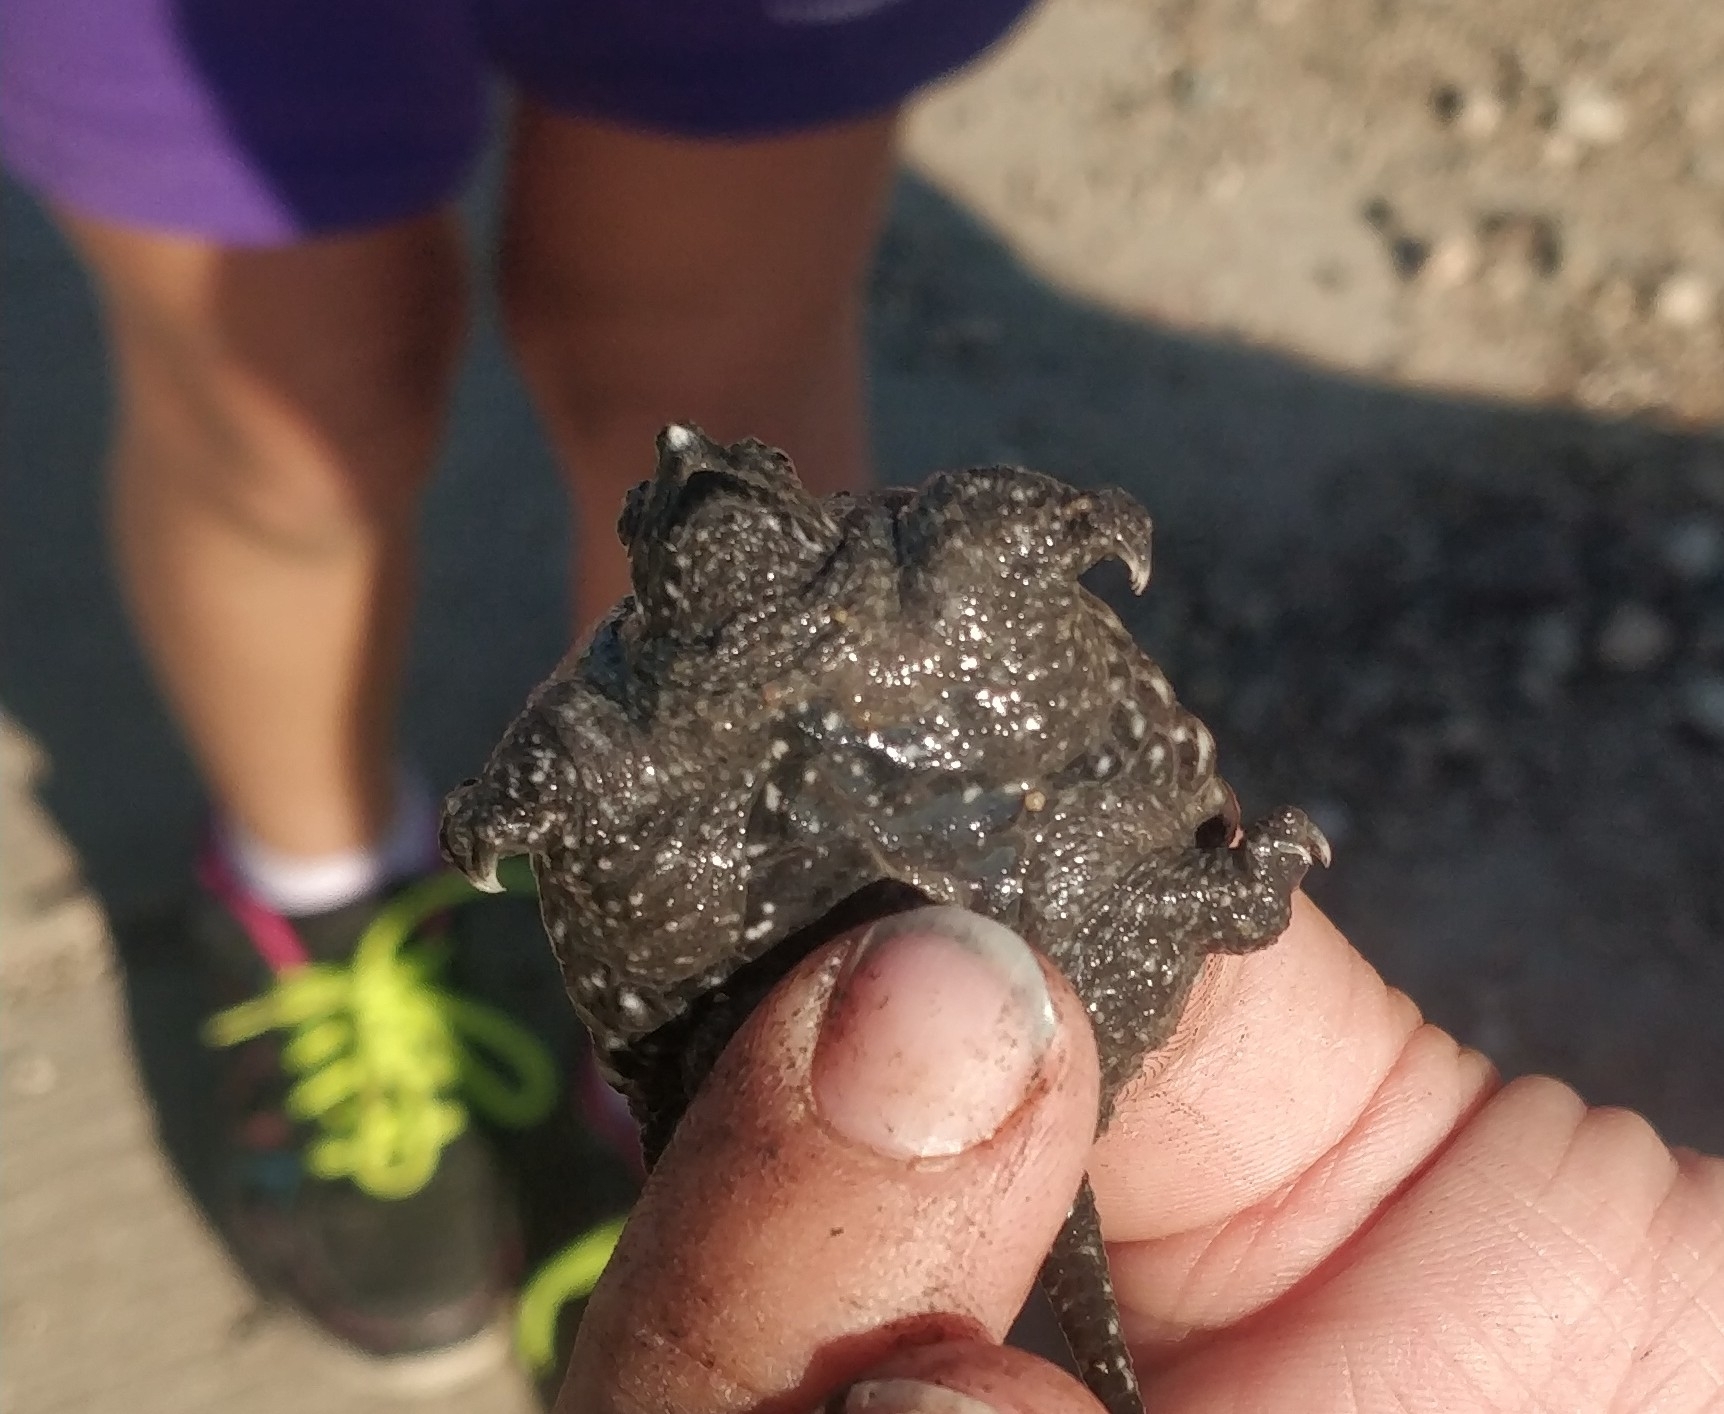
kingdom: Animalia
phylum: Chordata
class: Testudines
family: Chelydridae
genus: Chelydra
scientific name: Chelydra serpentina
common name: Common snapping turtle
